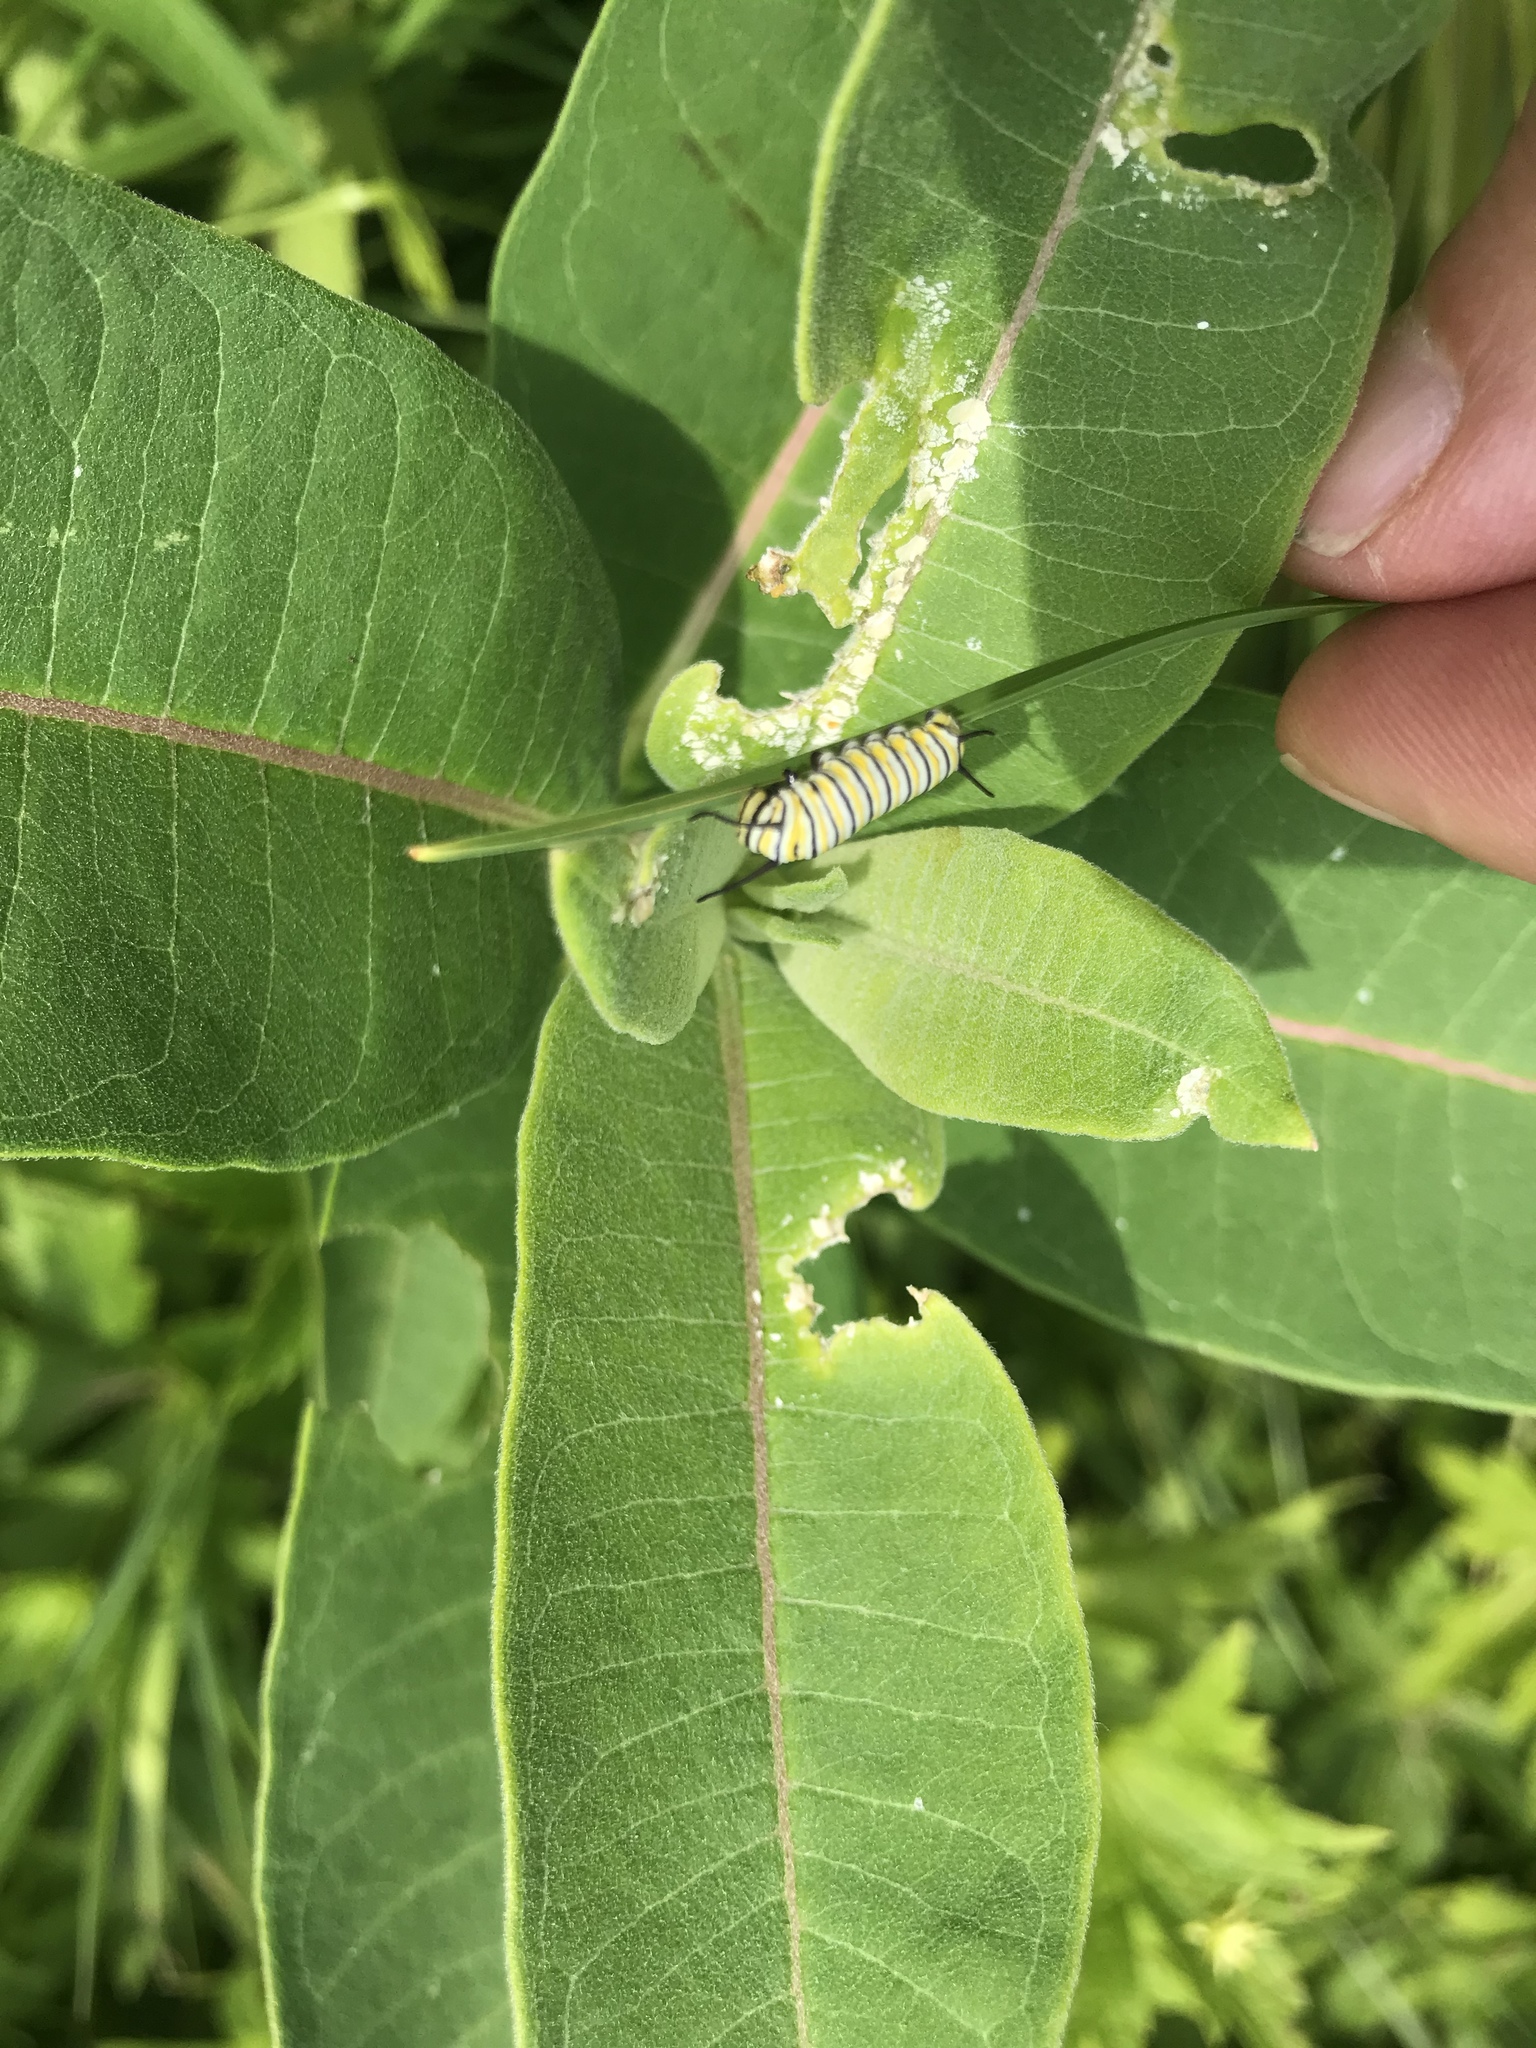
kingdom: Animalia
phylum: Arthropoda
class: Insecta
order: Lepidoptera
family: Nymphalidae
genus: Danaus
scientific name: Danaus plexippus
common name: Monarch
